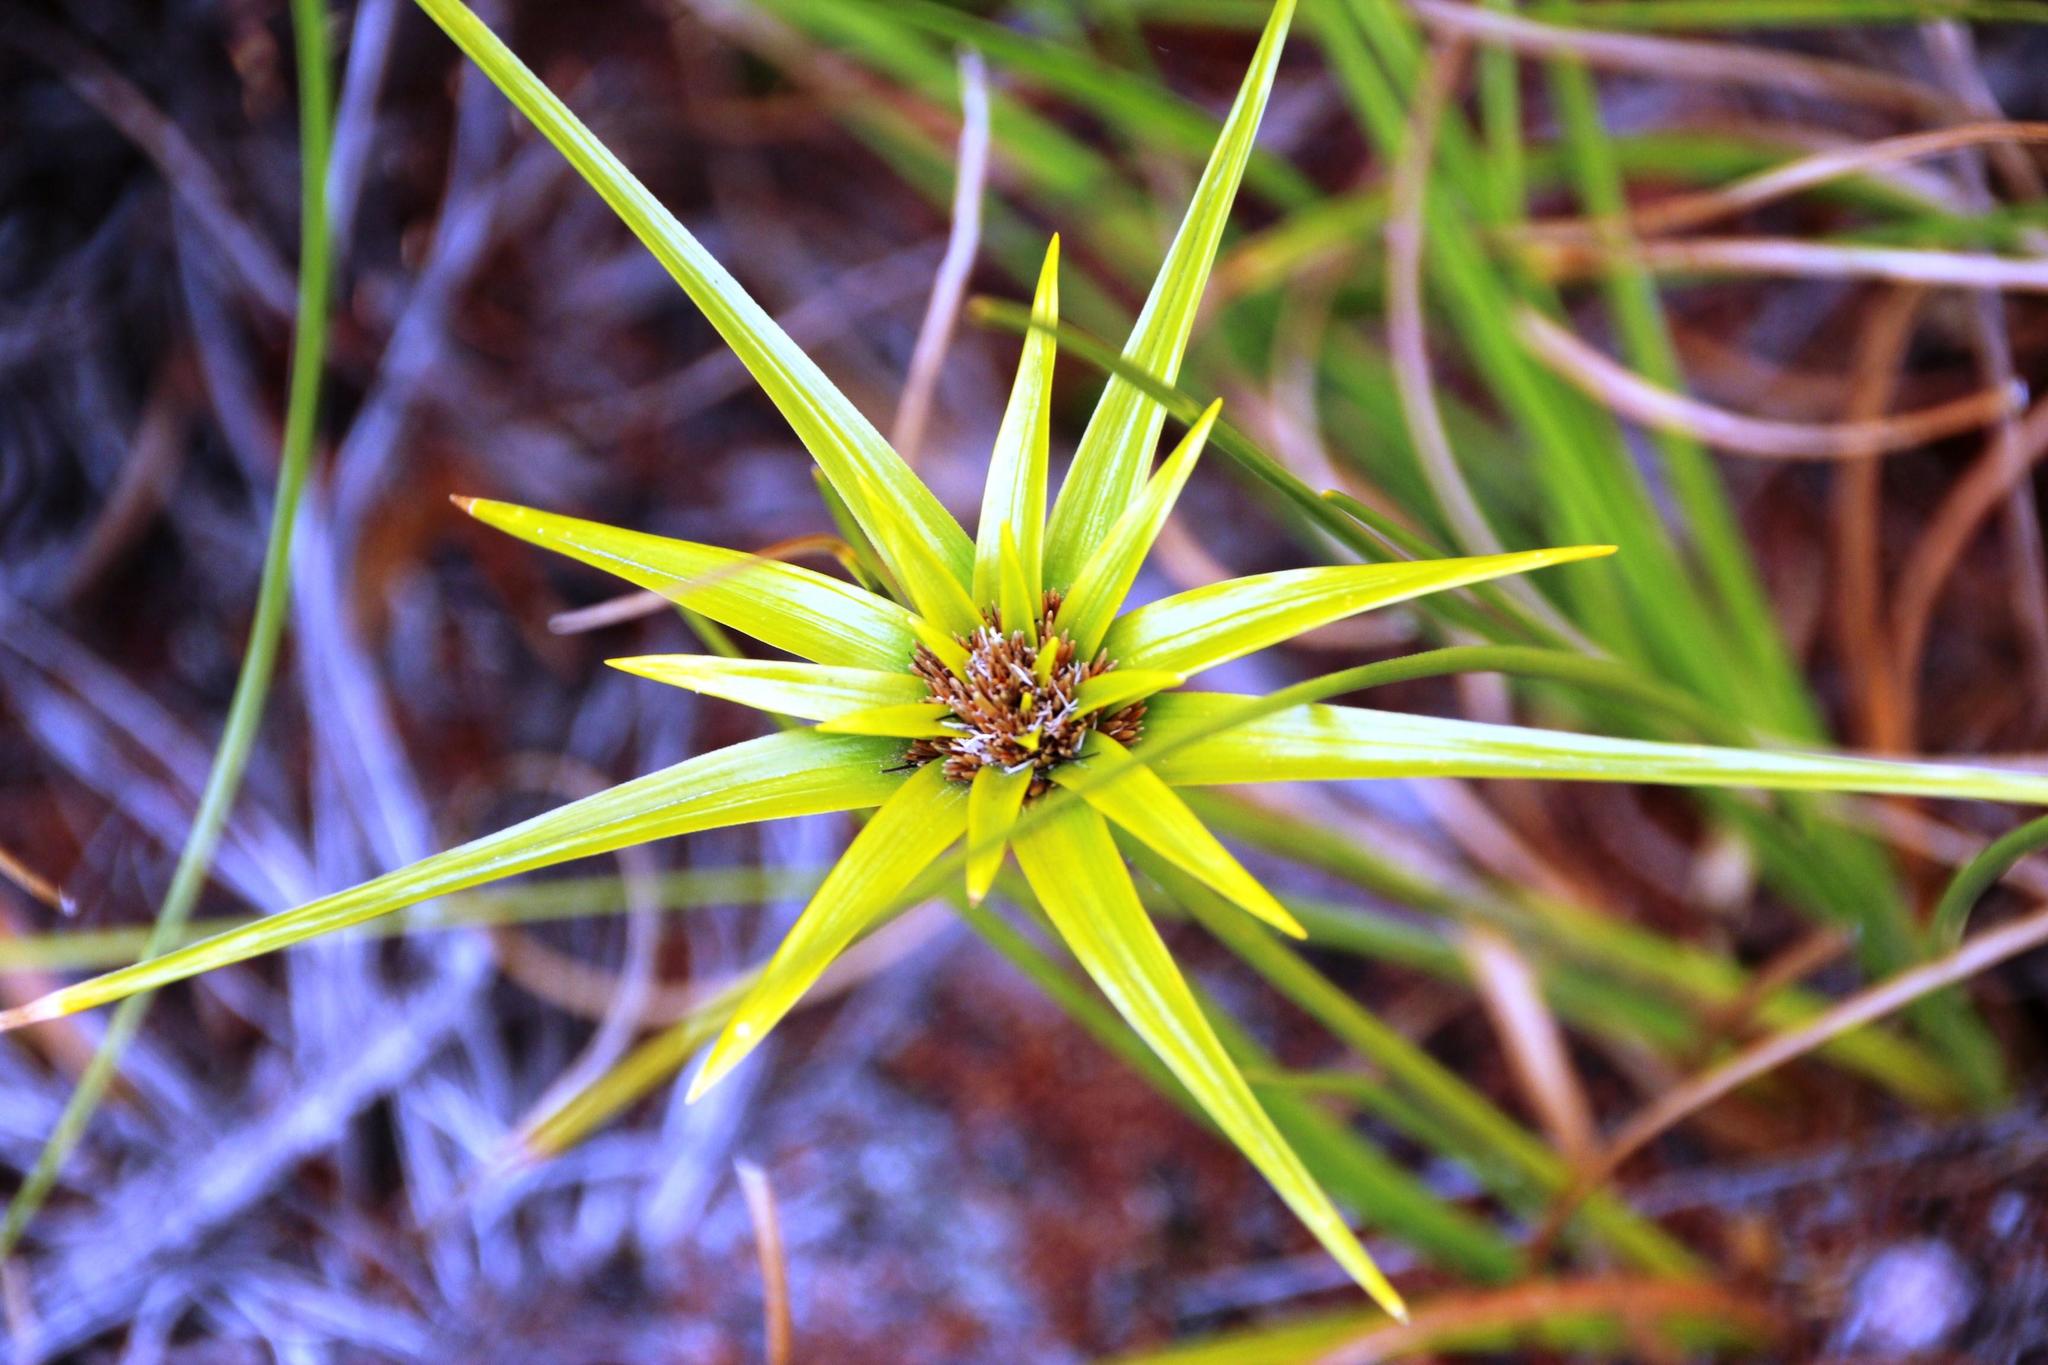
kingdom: Plantae
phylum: Tracheophyta
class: Liliopsida
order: Poales
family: Cyperaceae
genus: Ficinia
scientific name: Ficinia radiata
